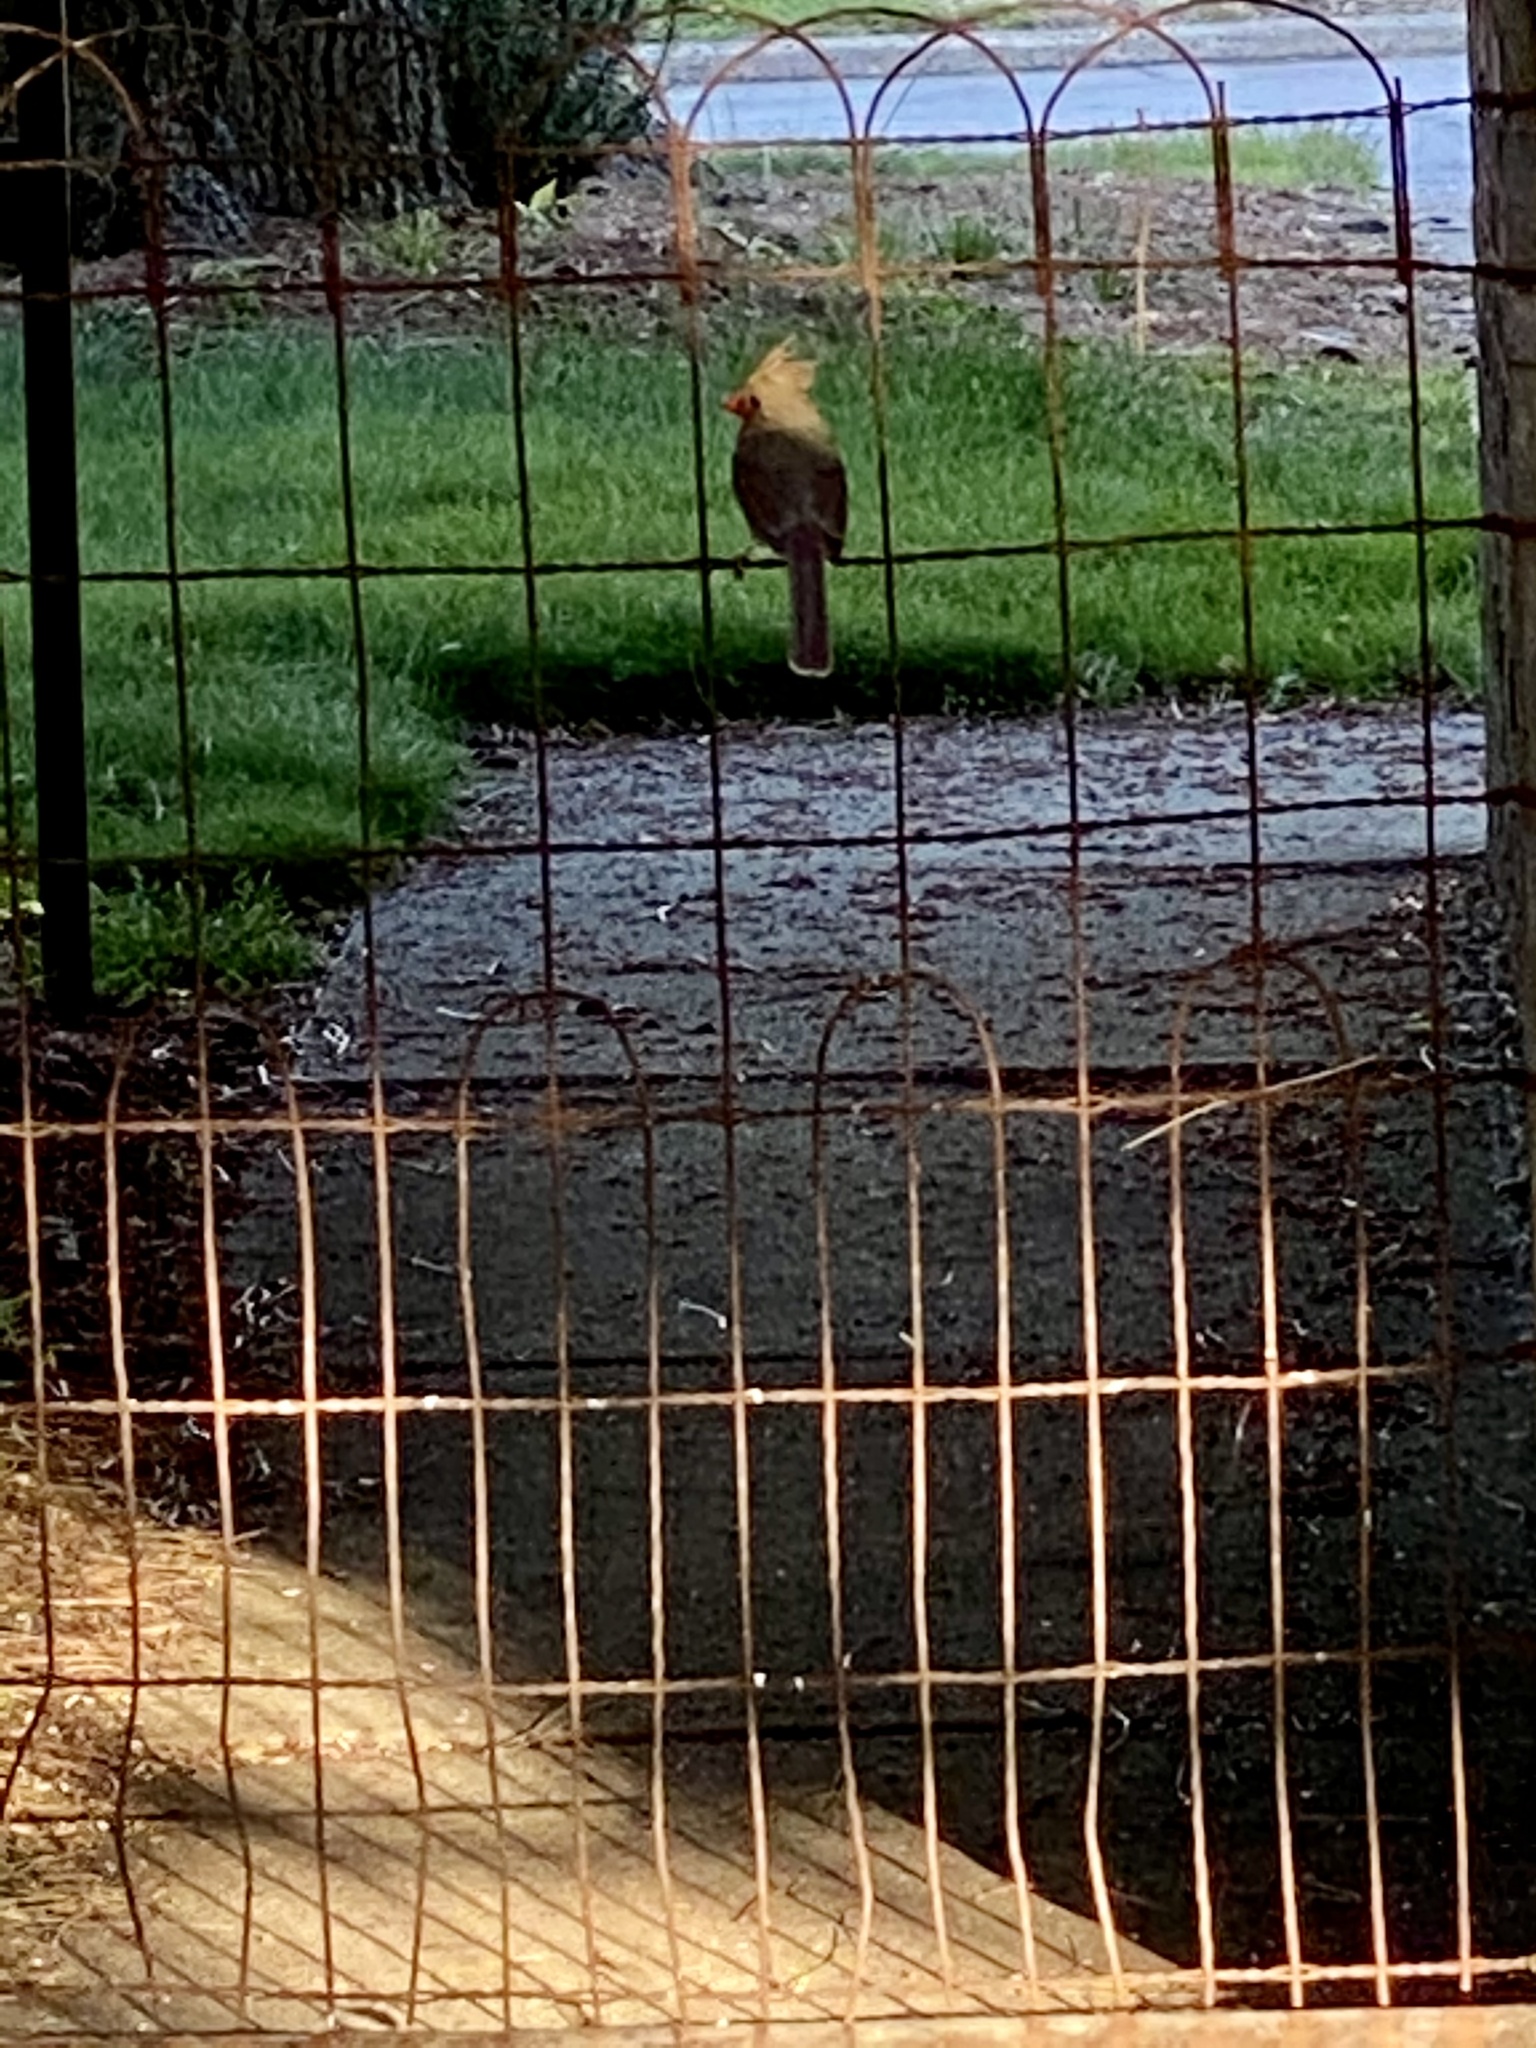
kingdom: Animalia
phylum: Chordata
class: Aves
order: Passeriformes
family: Cardinalidae
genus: Cardinalis
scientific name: Cardinalis cardinalis
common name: Northern cardinal
